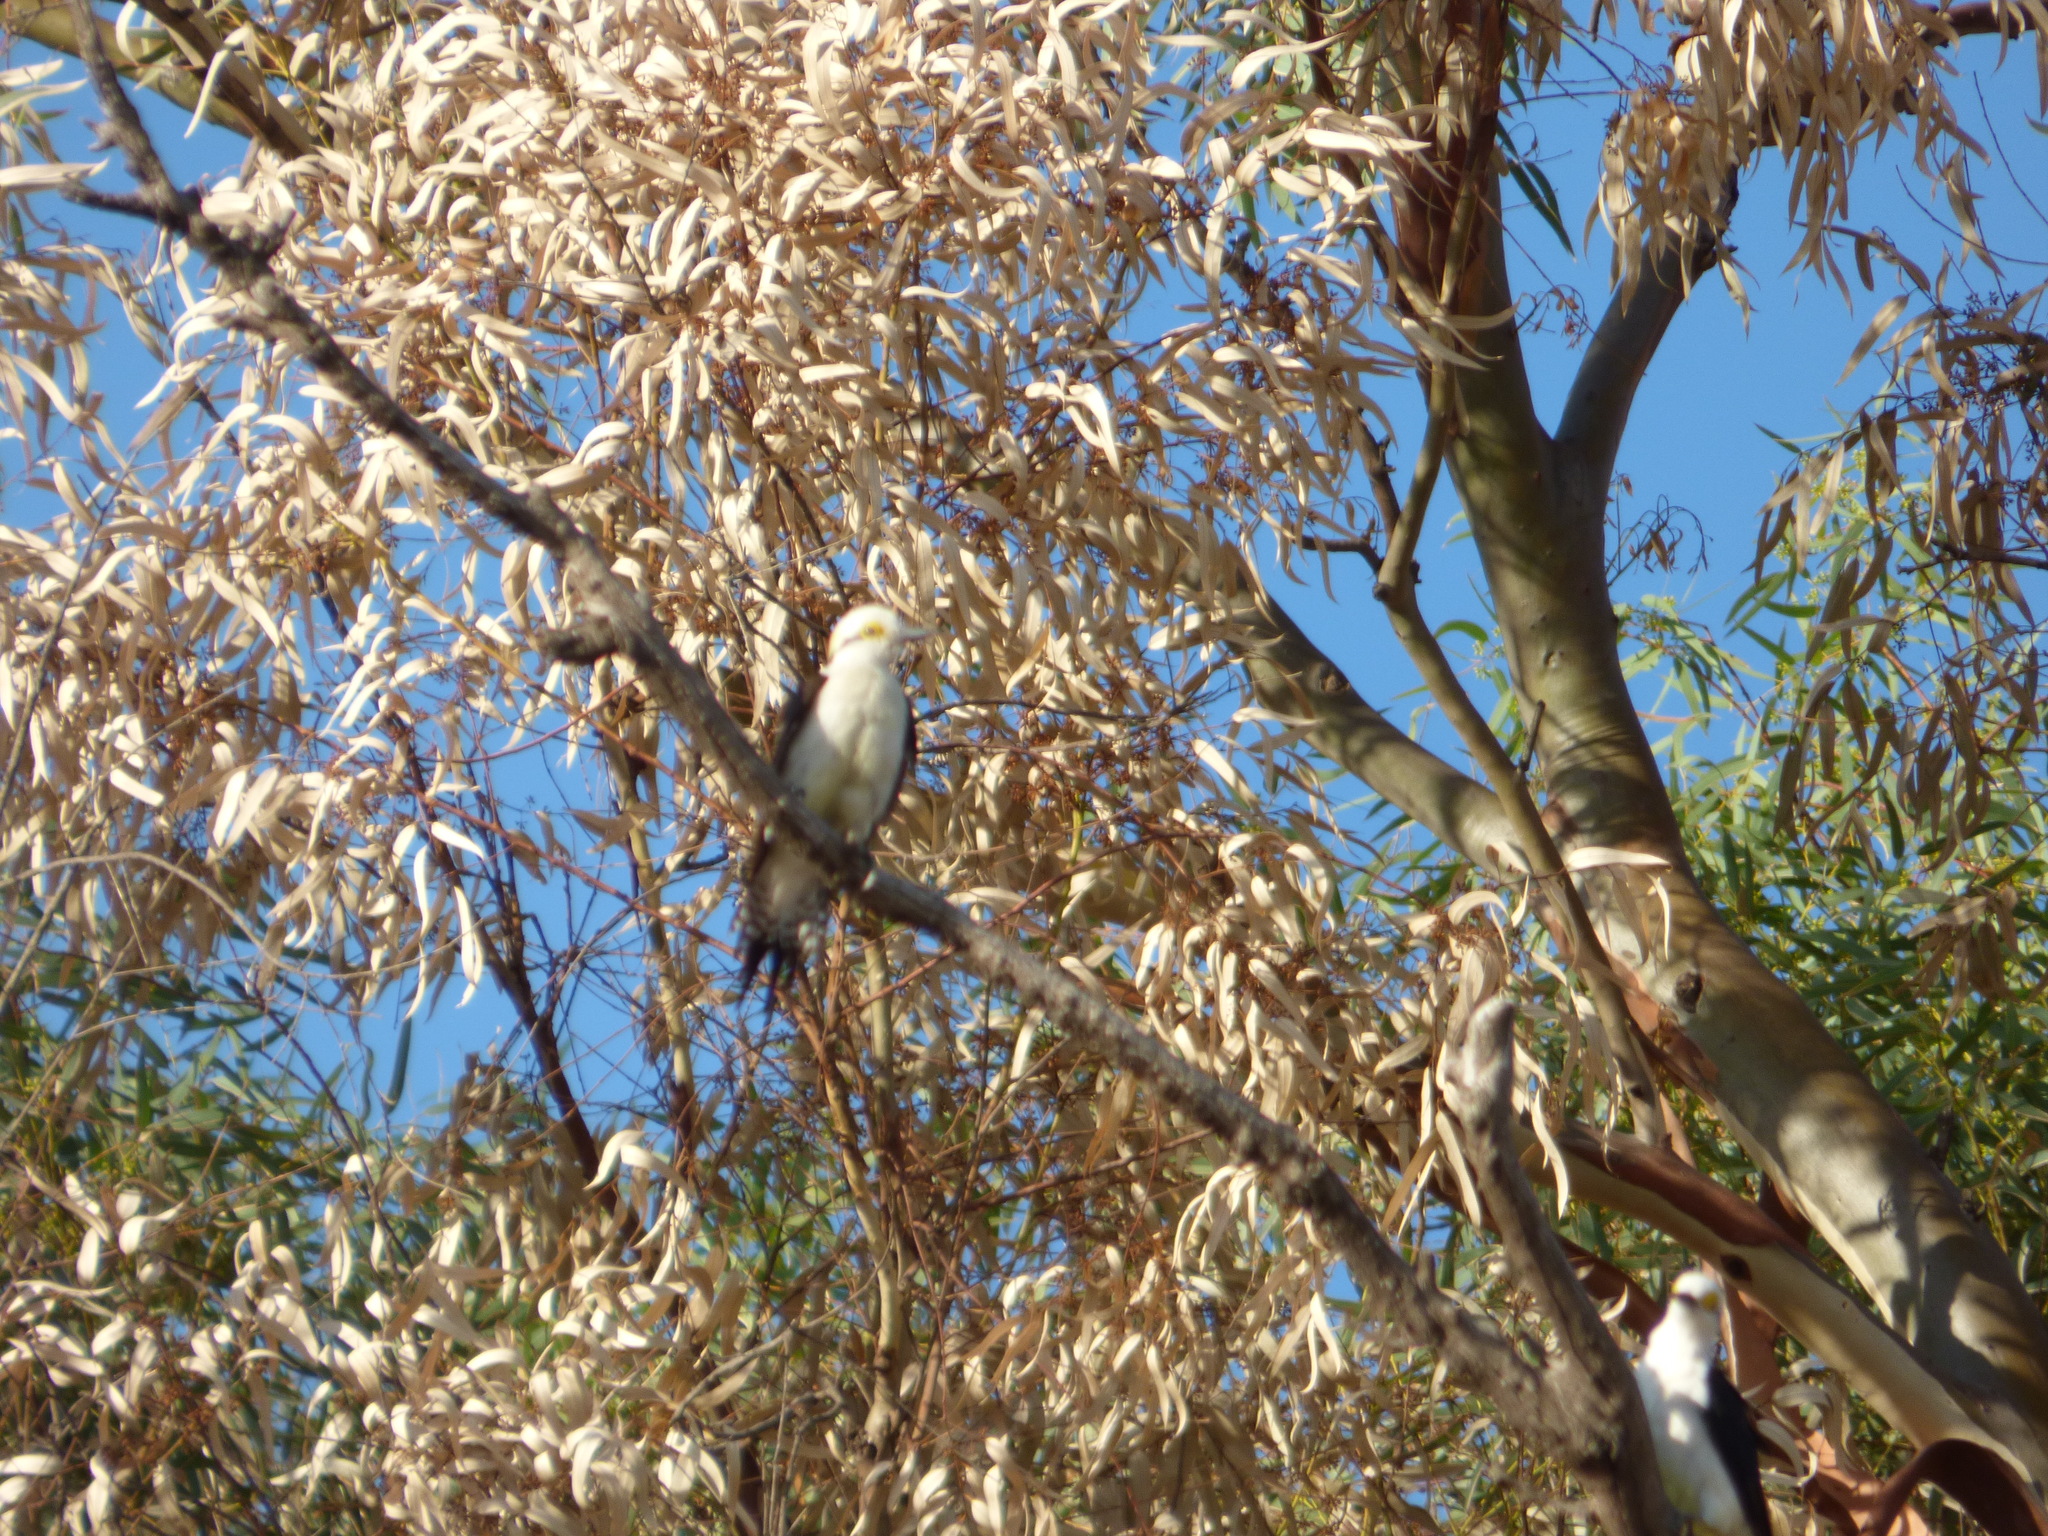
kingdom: Animalia
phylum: Chordata
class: Aves
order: Piciformes
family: Picidae
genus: Melanerpes
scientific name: Melanerpes candidus
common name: White woodpecker
